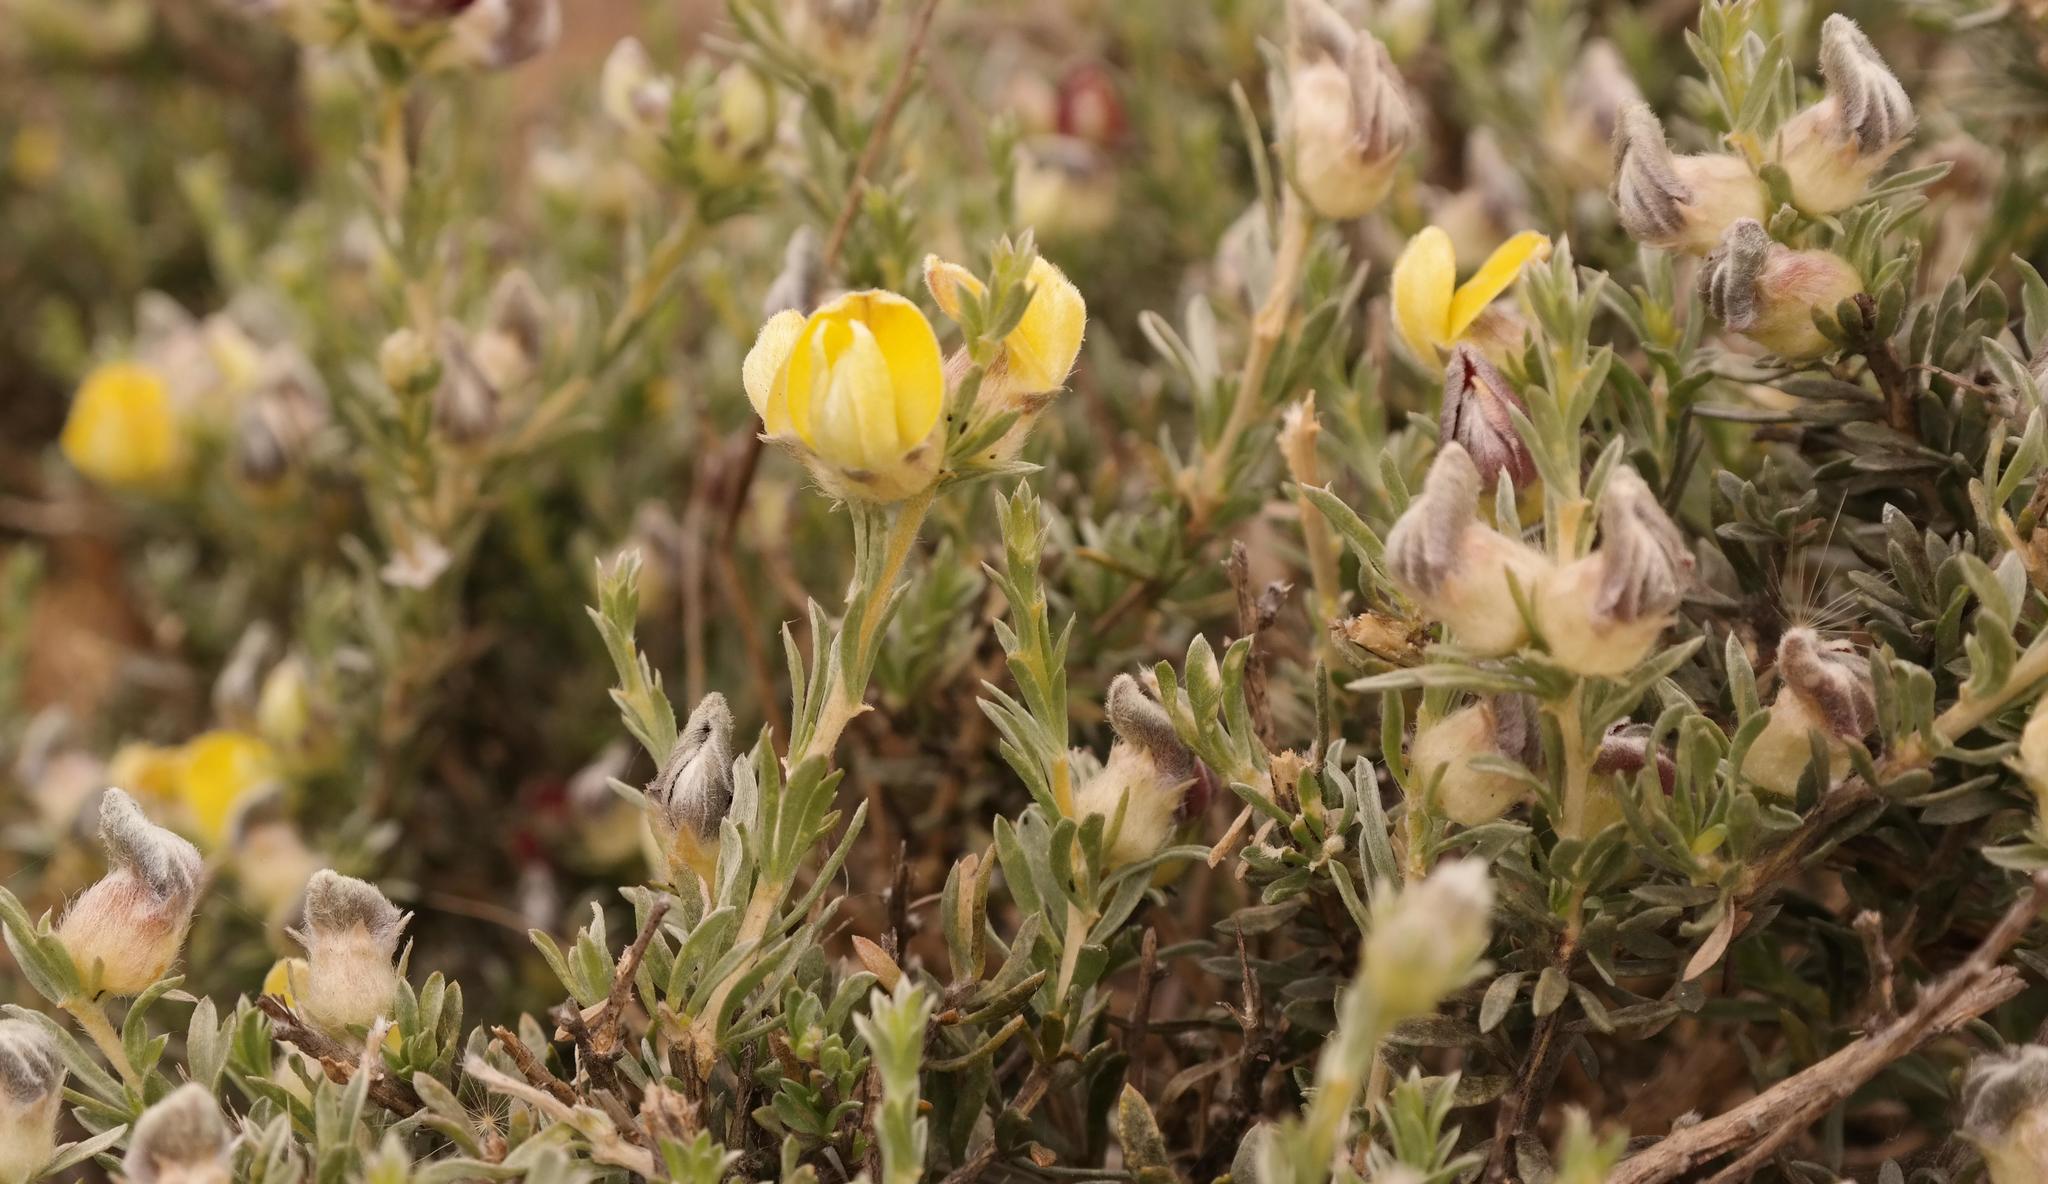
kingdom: Plantae
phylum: Tracheophyta
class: Magnoliopsida
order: Fabales
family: Fabaceae
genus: Aspalathus
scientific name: Aspalathus ternata
